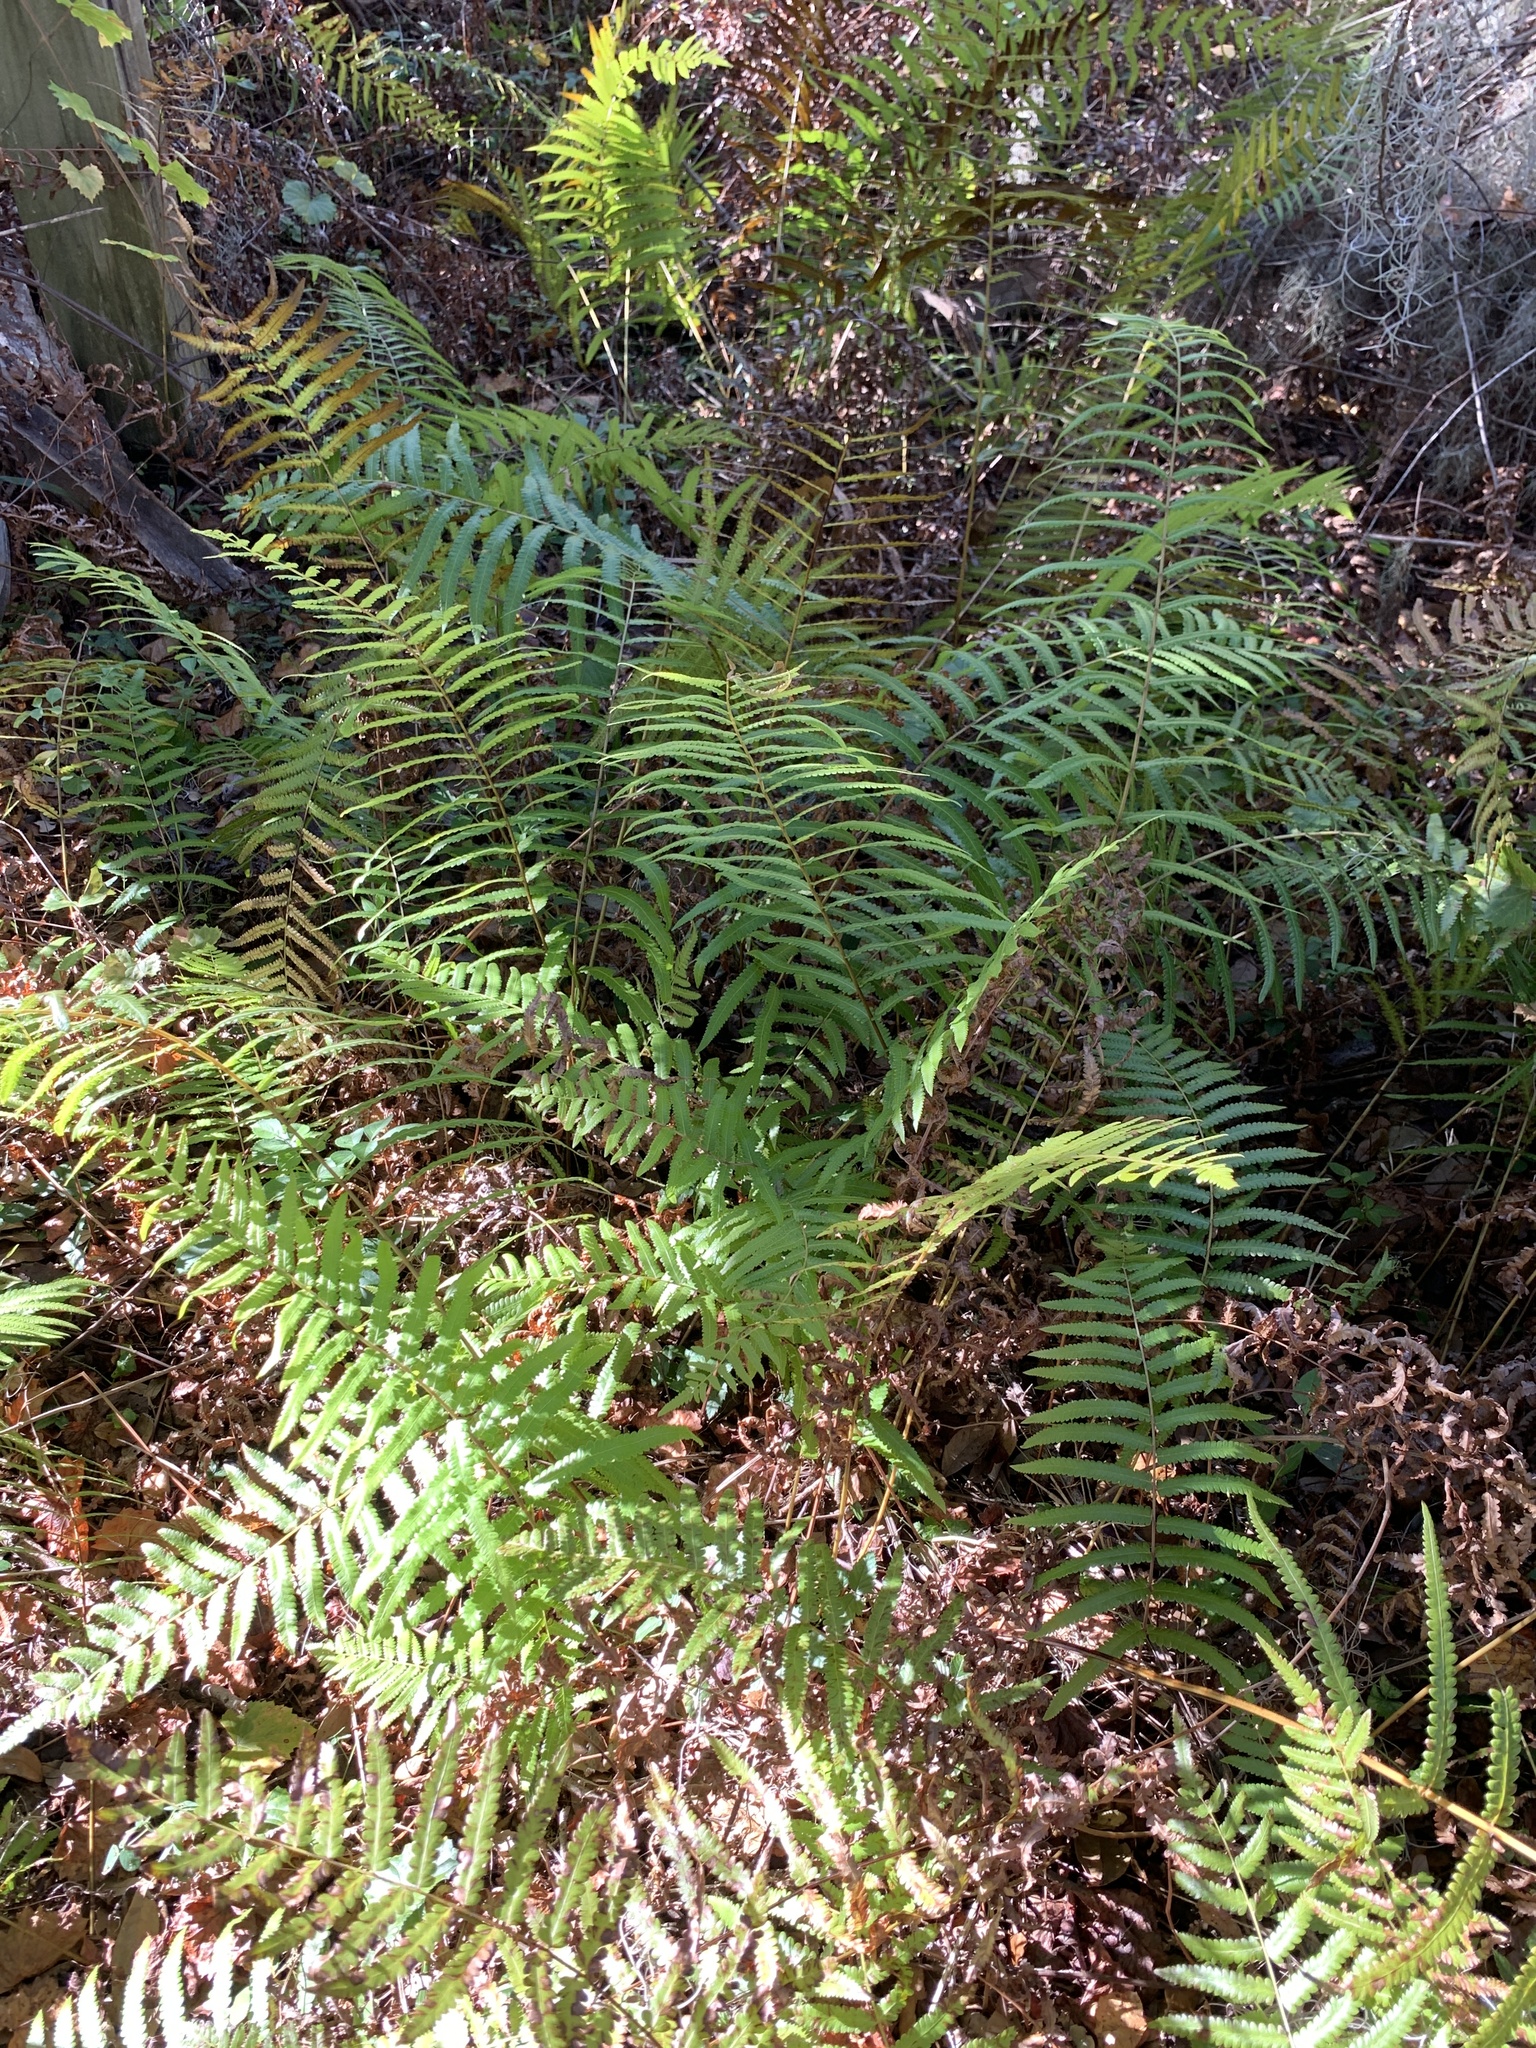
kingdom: Plantae
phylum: Tracheophyta
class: Polypodiopsida
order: Polypodiales
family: Thelypteridaceae
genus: Cyclosorus
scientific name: Cyclosorus interruptus
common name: Neke fern
